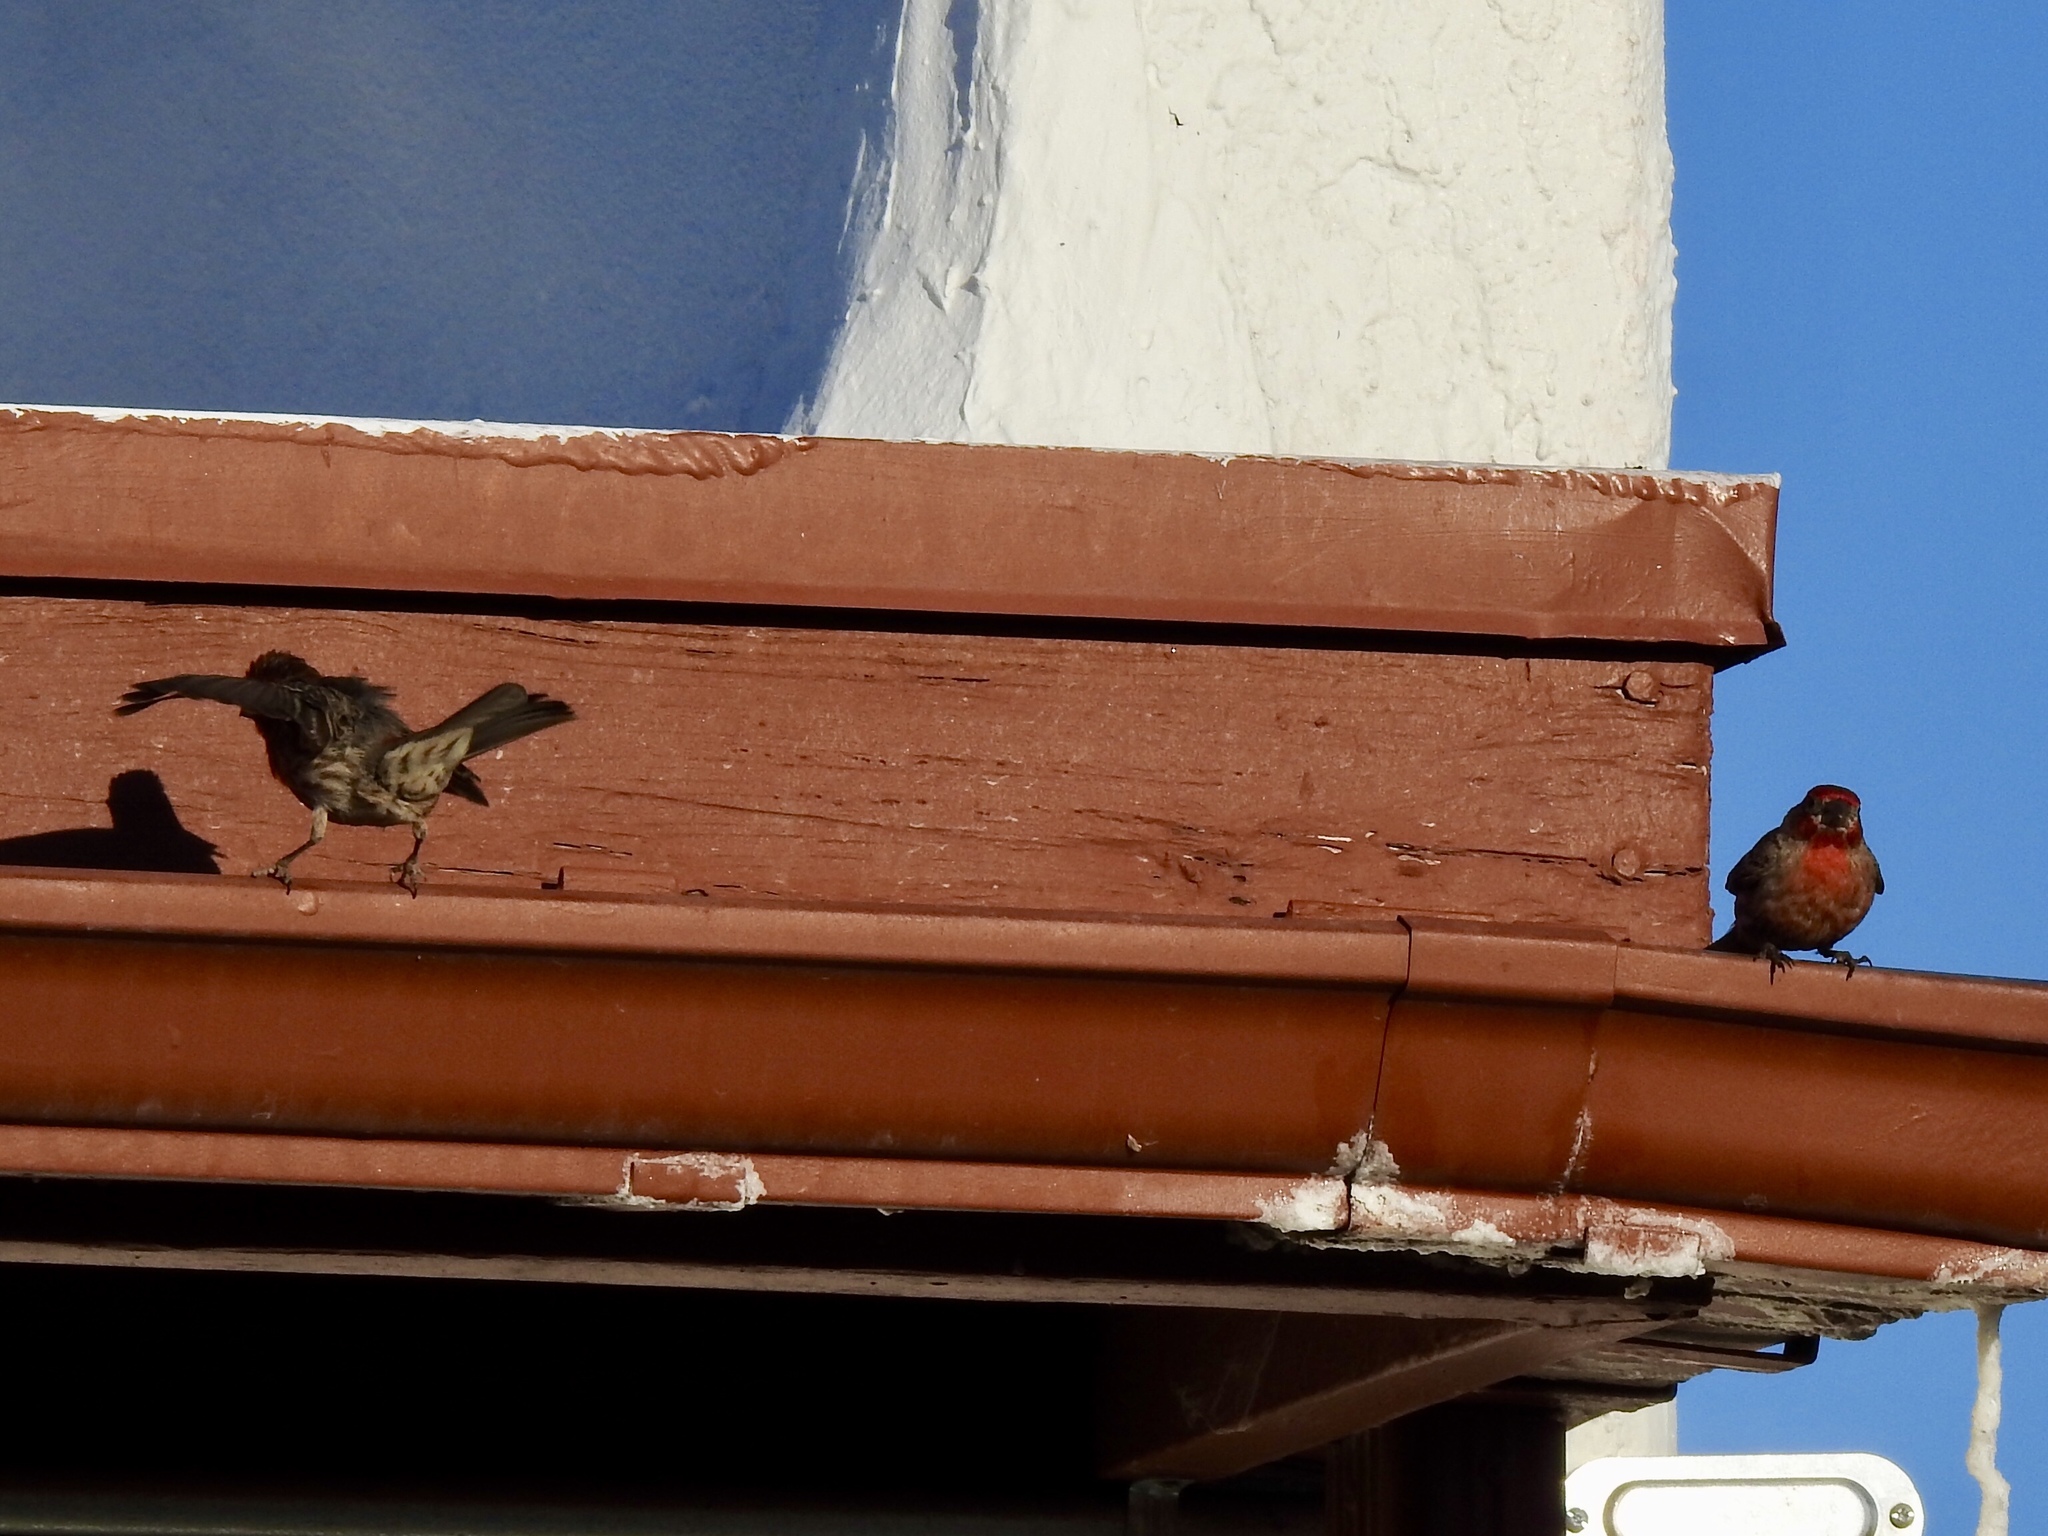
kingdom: Animalia
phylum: Chordata
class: Aves
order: Passeriformes
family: Fringillidae
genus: Haemorhous
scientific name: Haemorhous mexicanus
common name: House finch
